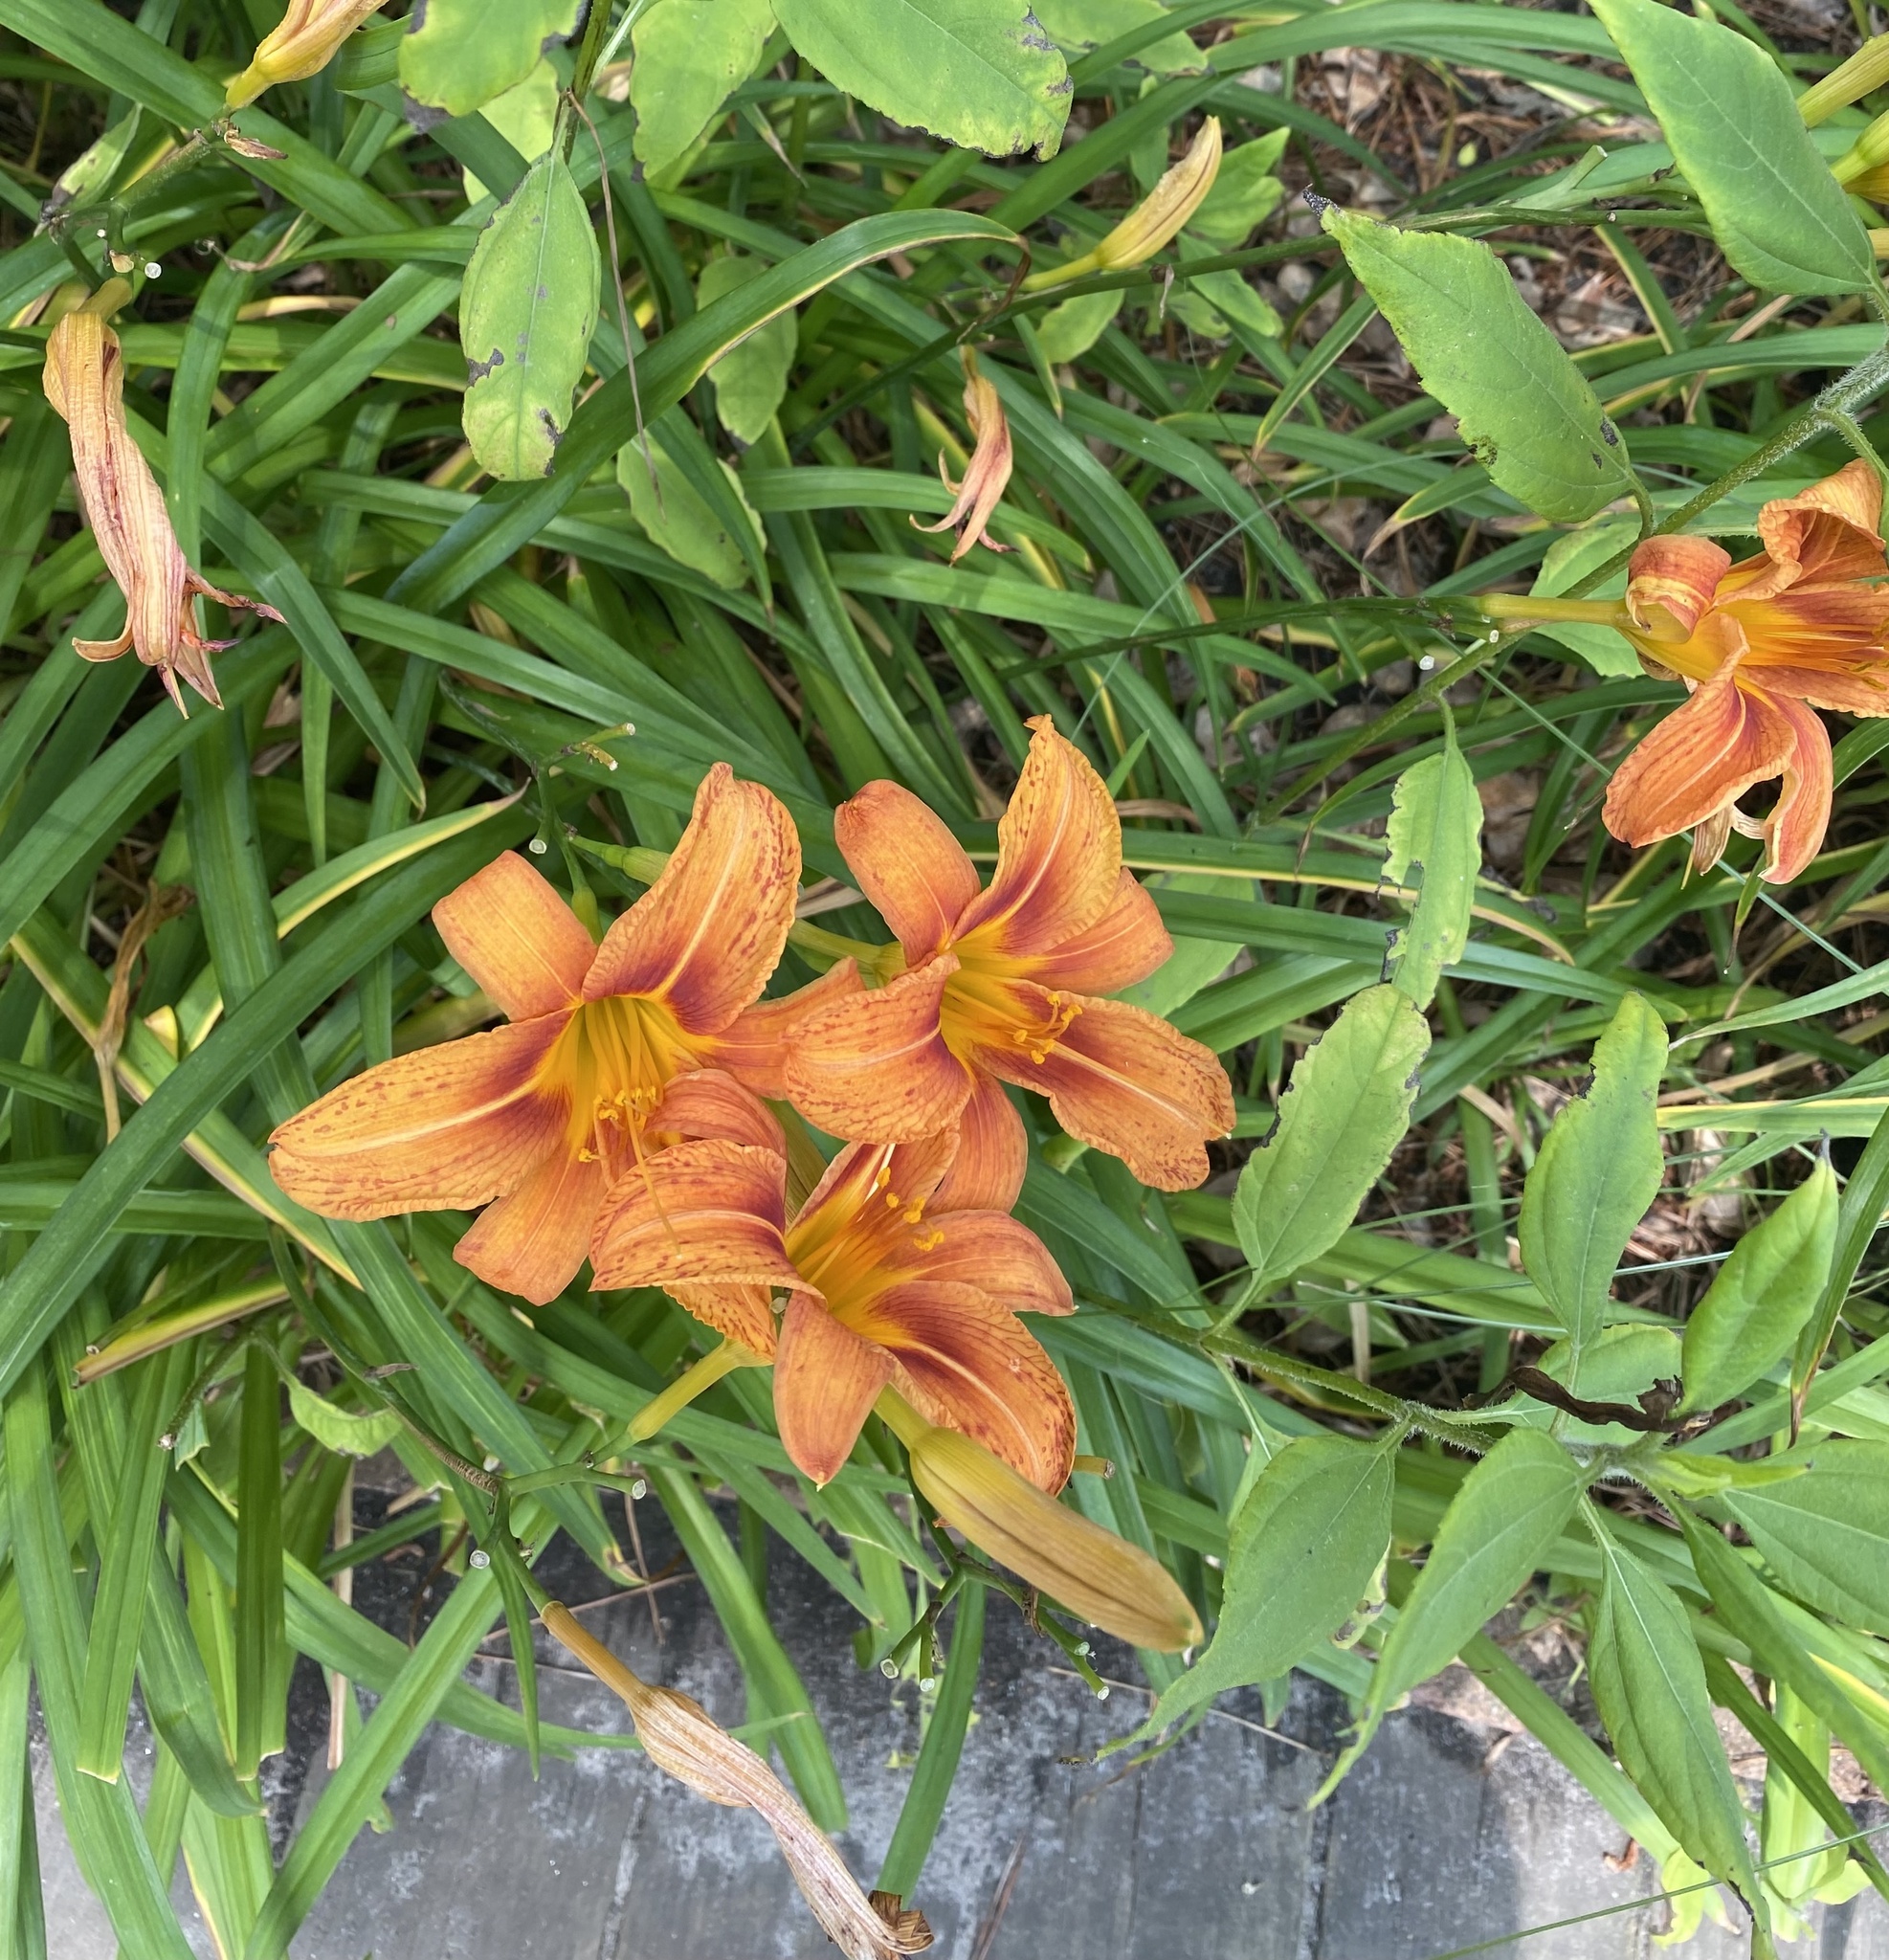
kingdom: Plantae
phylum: Tracheophyta
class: Liliopsida
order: Asparagales
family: Asphodelaceae
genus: Hemerocallis
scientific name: Hemerocallis fulva
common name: Orange day-lily
